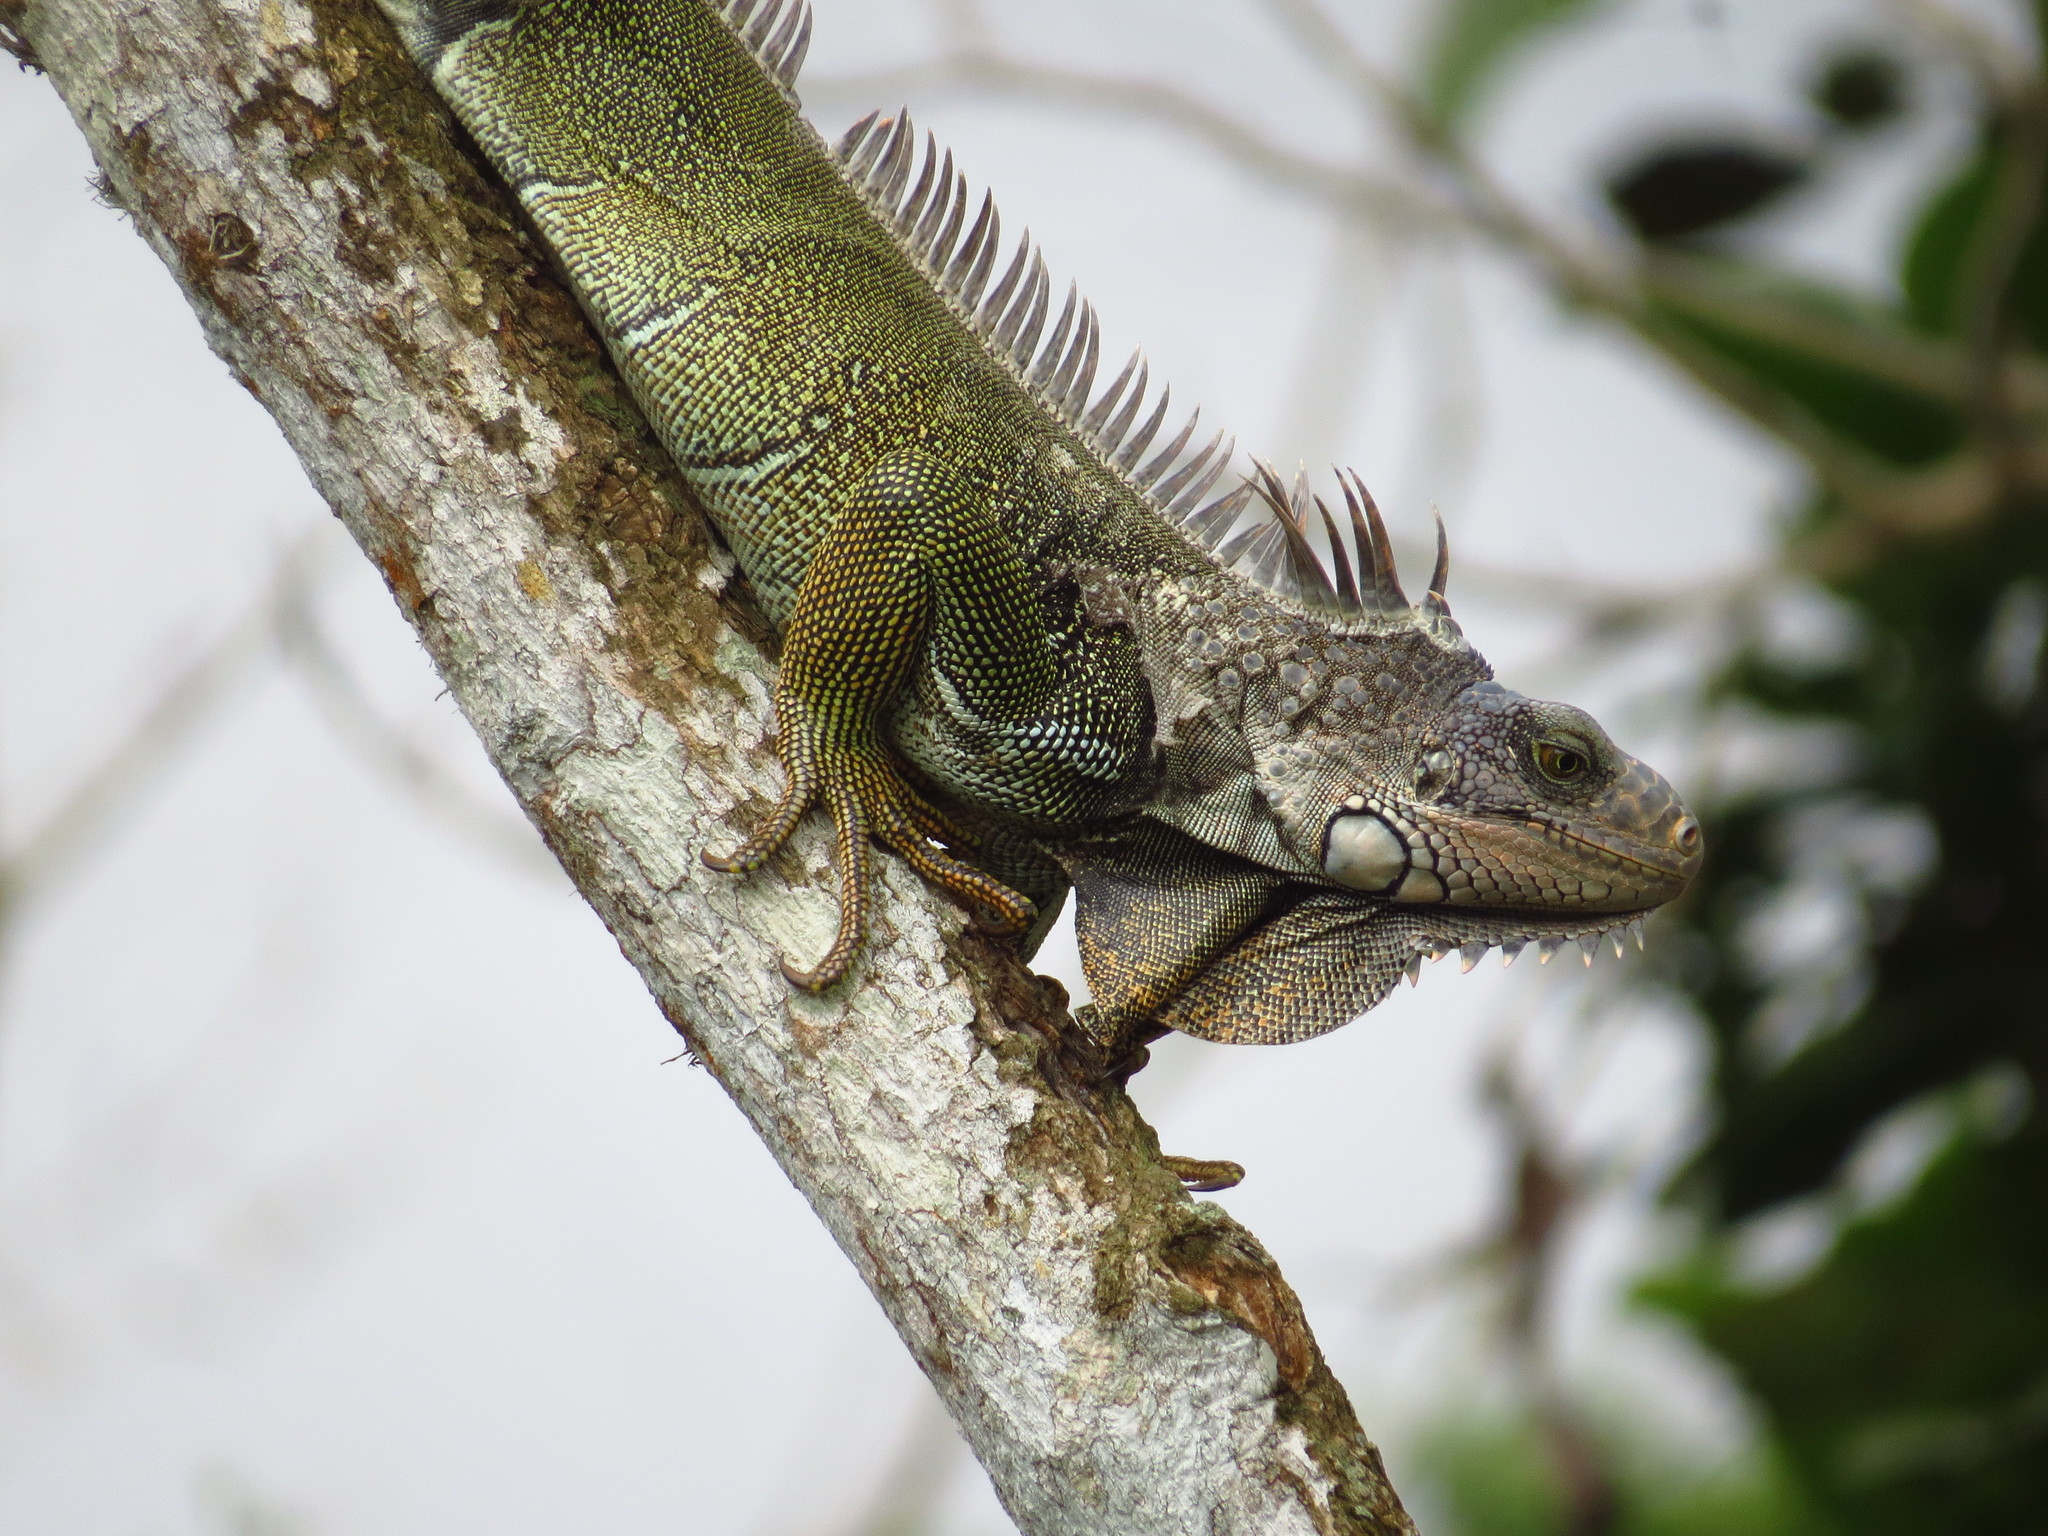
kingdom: Animalia
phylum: Chordata
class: Squamata
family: Iguanidae
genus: Iguana
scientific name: Iguana iguana
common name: Green iguana
